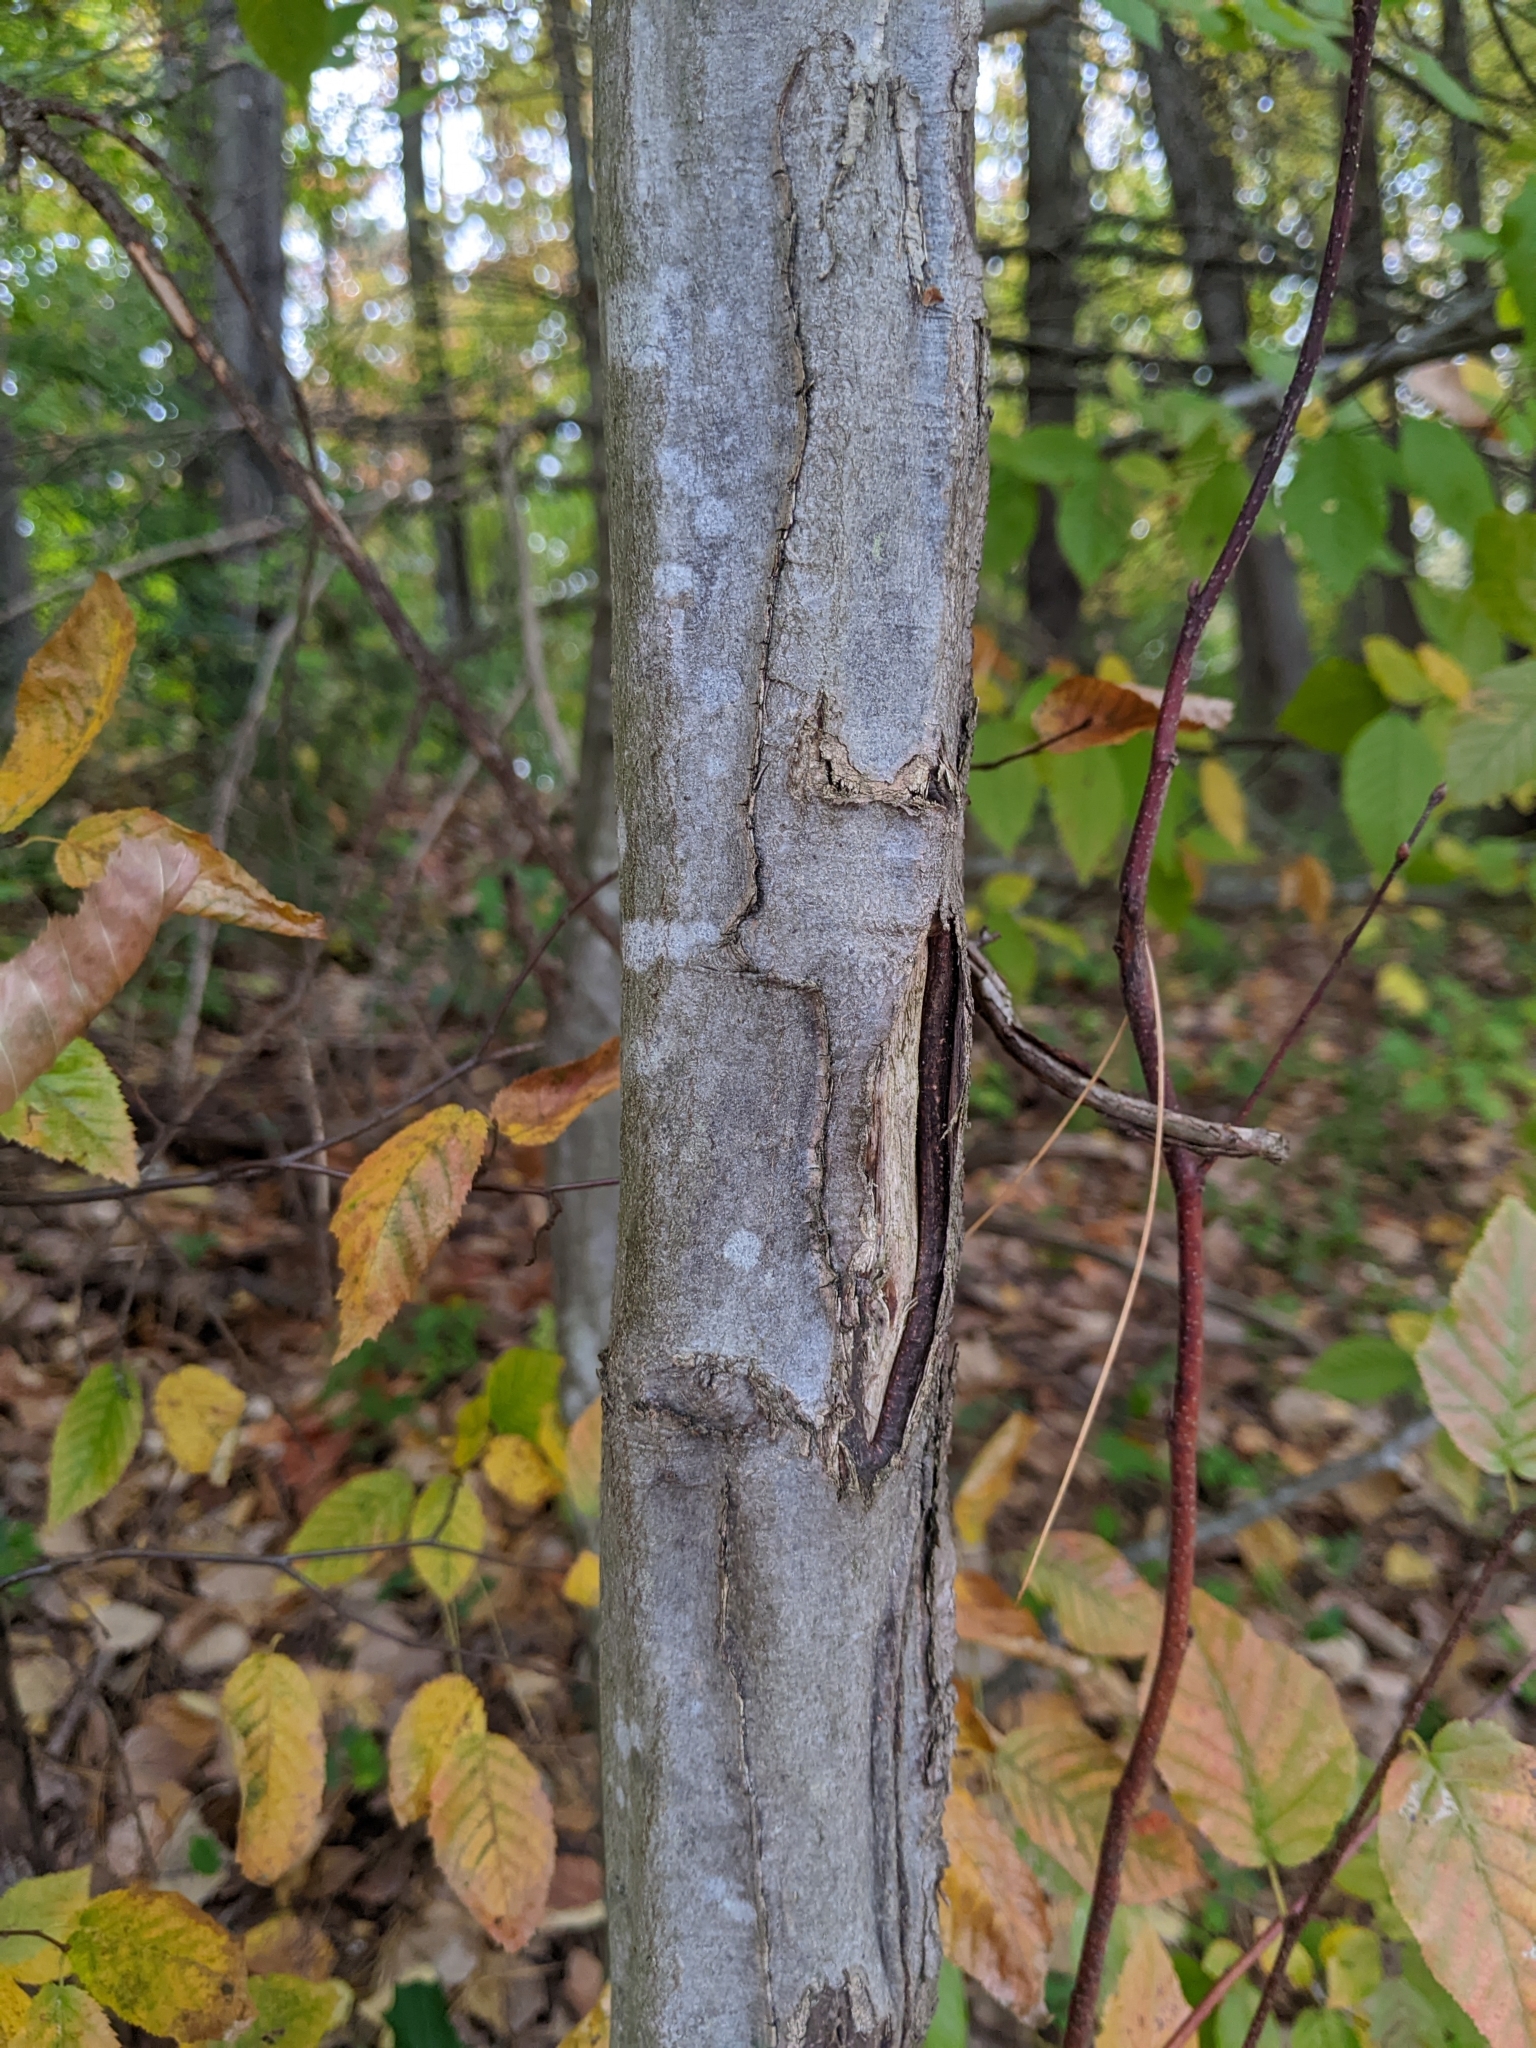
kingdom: Plantae
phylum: Tracheophyta
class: Magnoliopsida
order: Fagales
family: Betulaceae
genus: Carpinus
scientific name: Carpinus caroliniana
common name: American hornbeam
